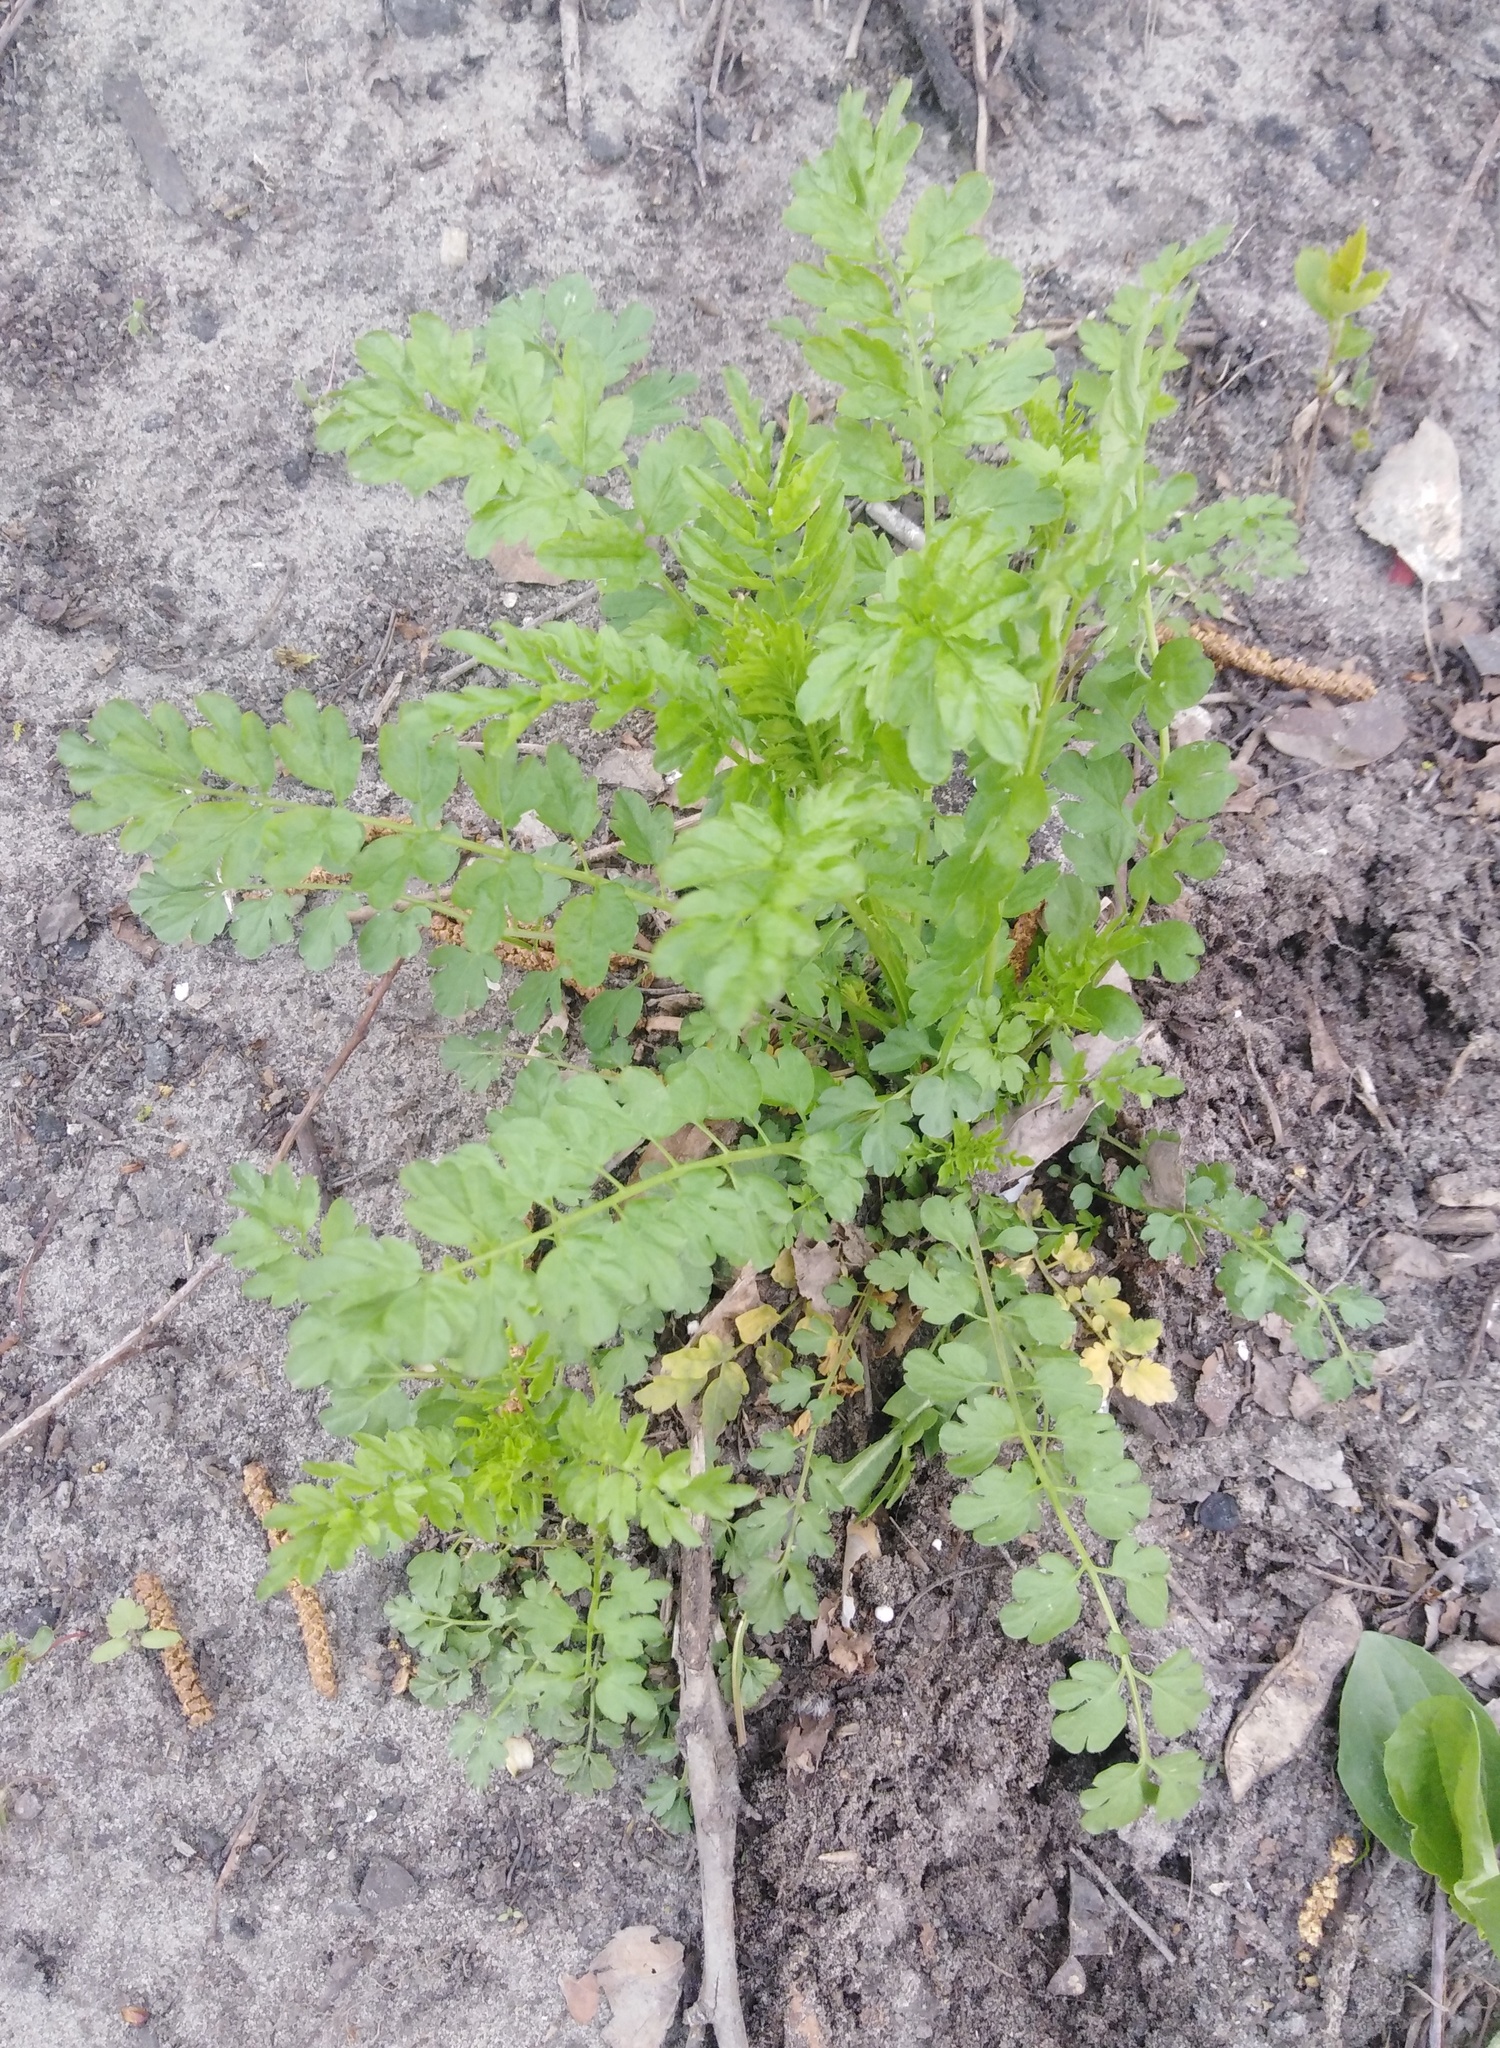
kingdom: Plantae
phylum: Tracheophyta
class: Magnoliopsida
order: Brassicales
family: Brassicaceae
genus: Cardamine
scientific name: Cardamine impatiens
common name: Narrow-leaved bitter-cress
